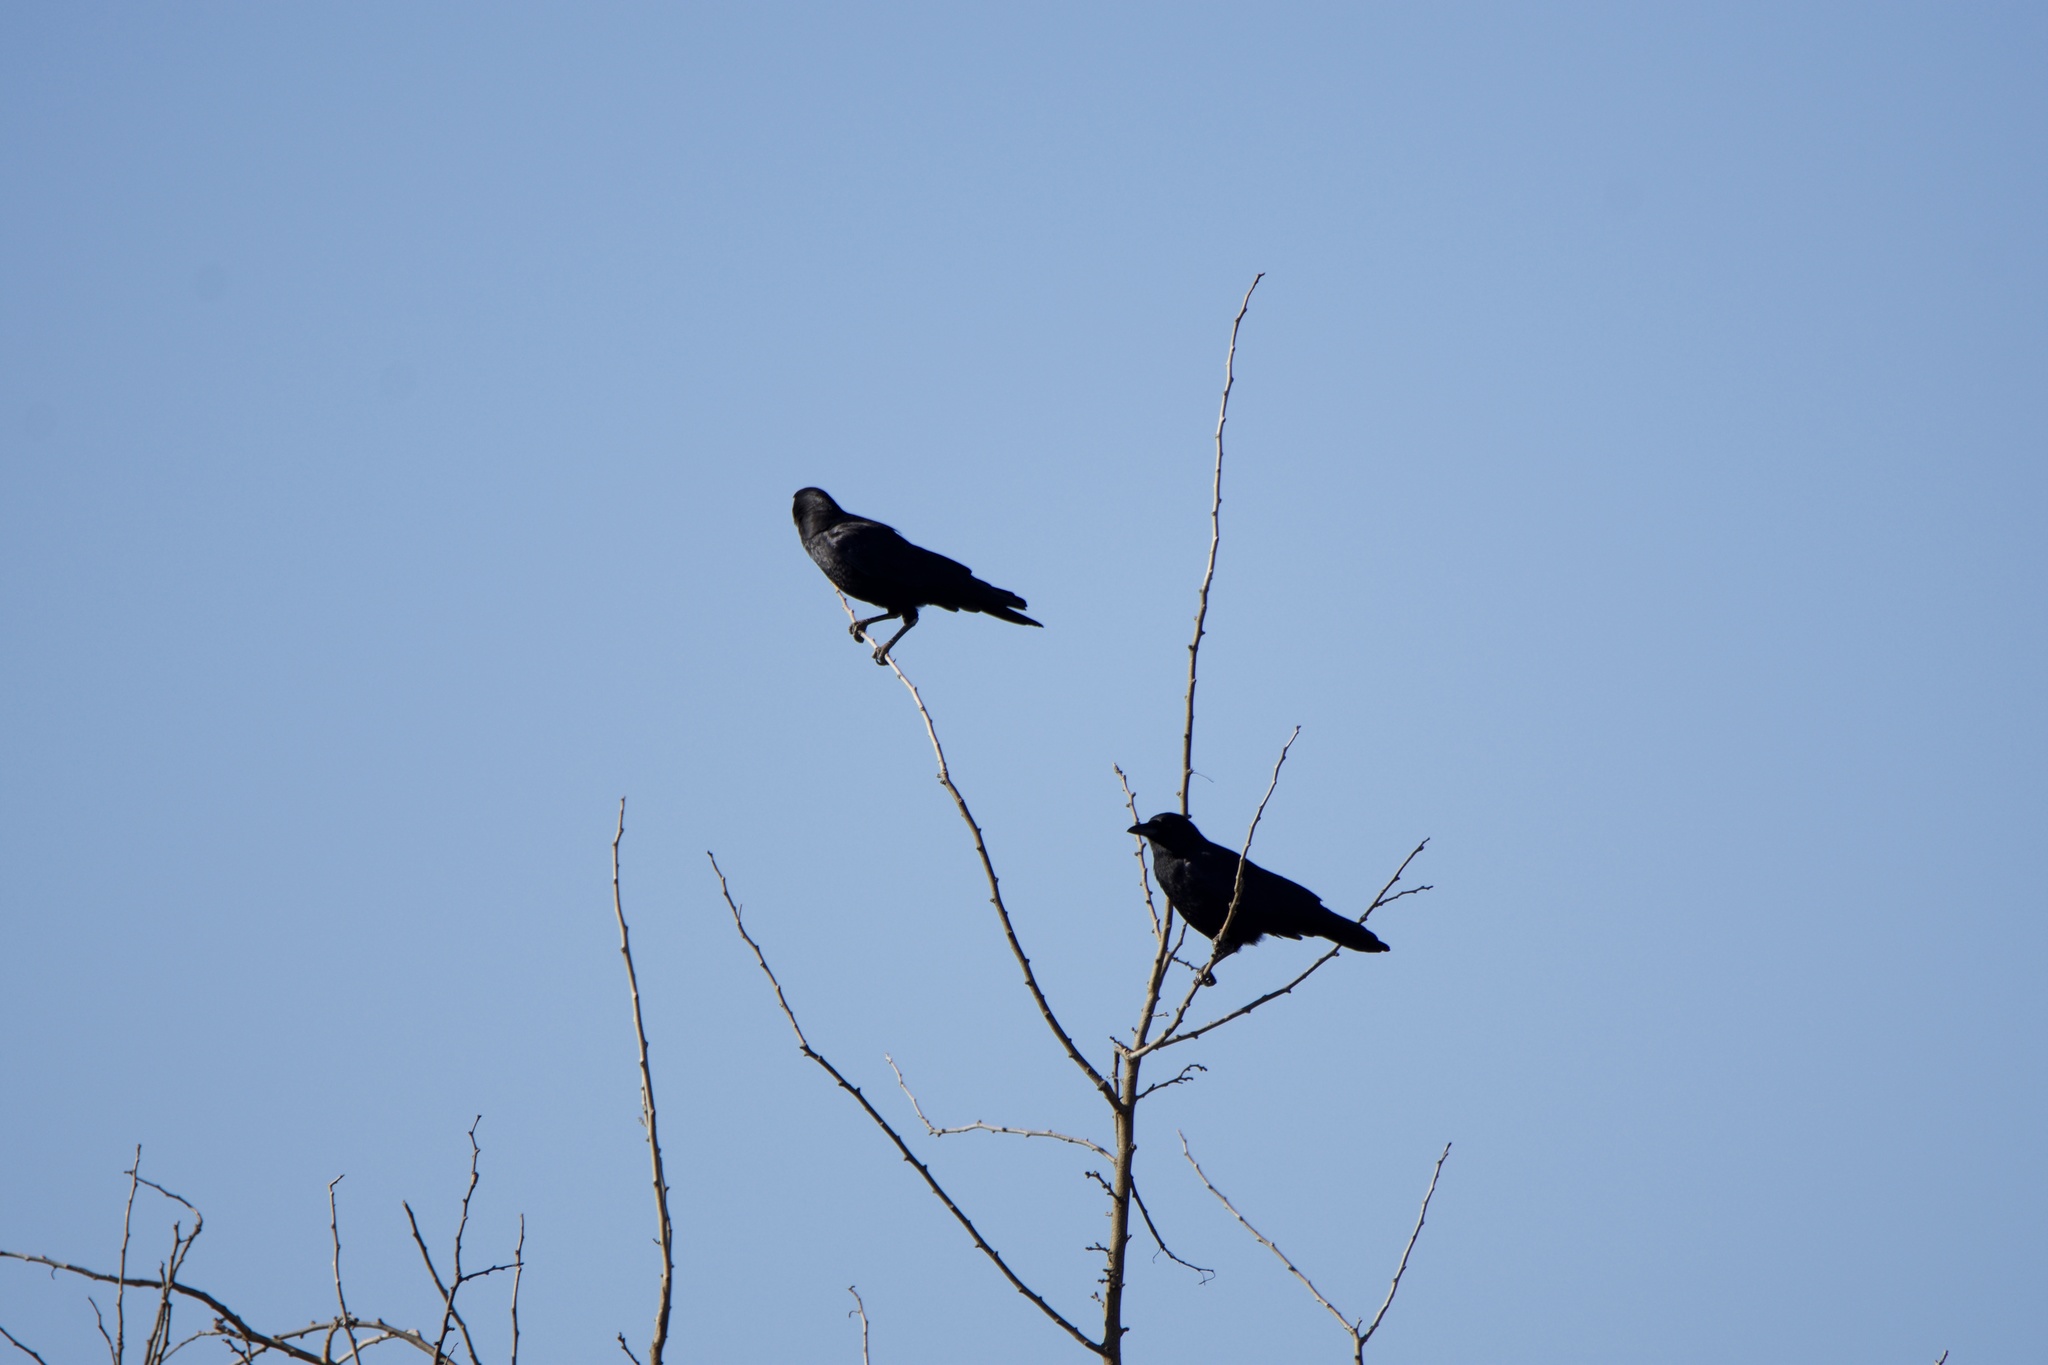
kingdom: Animalia
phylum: Chordata
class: Aves
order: Passeriformes
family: Corvidae
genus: Corvus
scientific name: Corvus brachyrhynchos
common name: American crow
